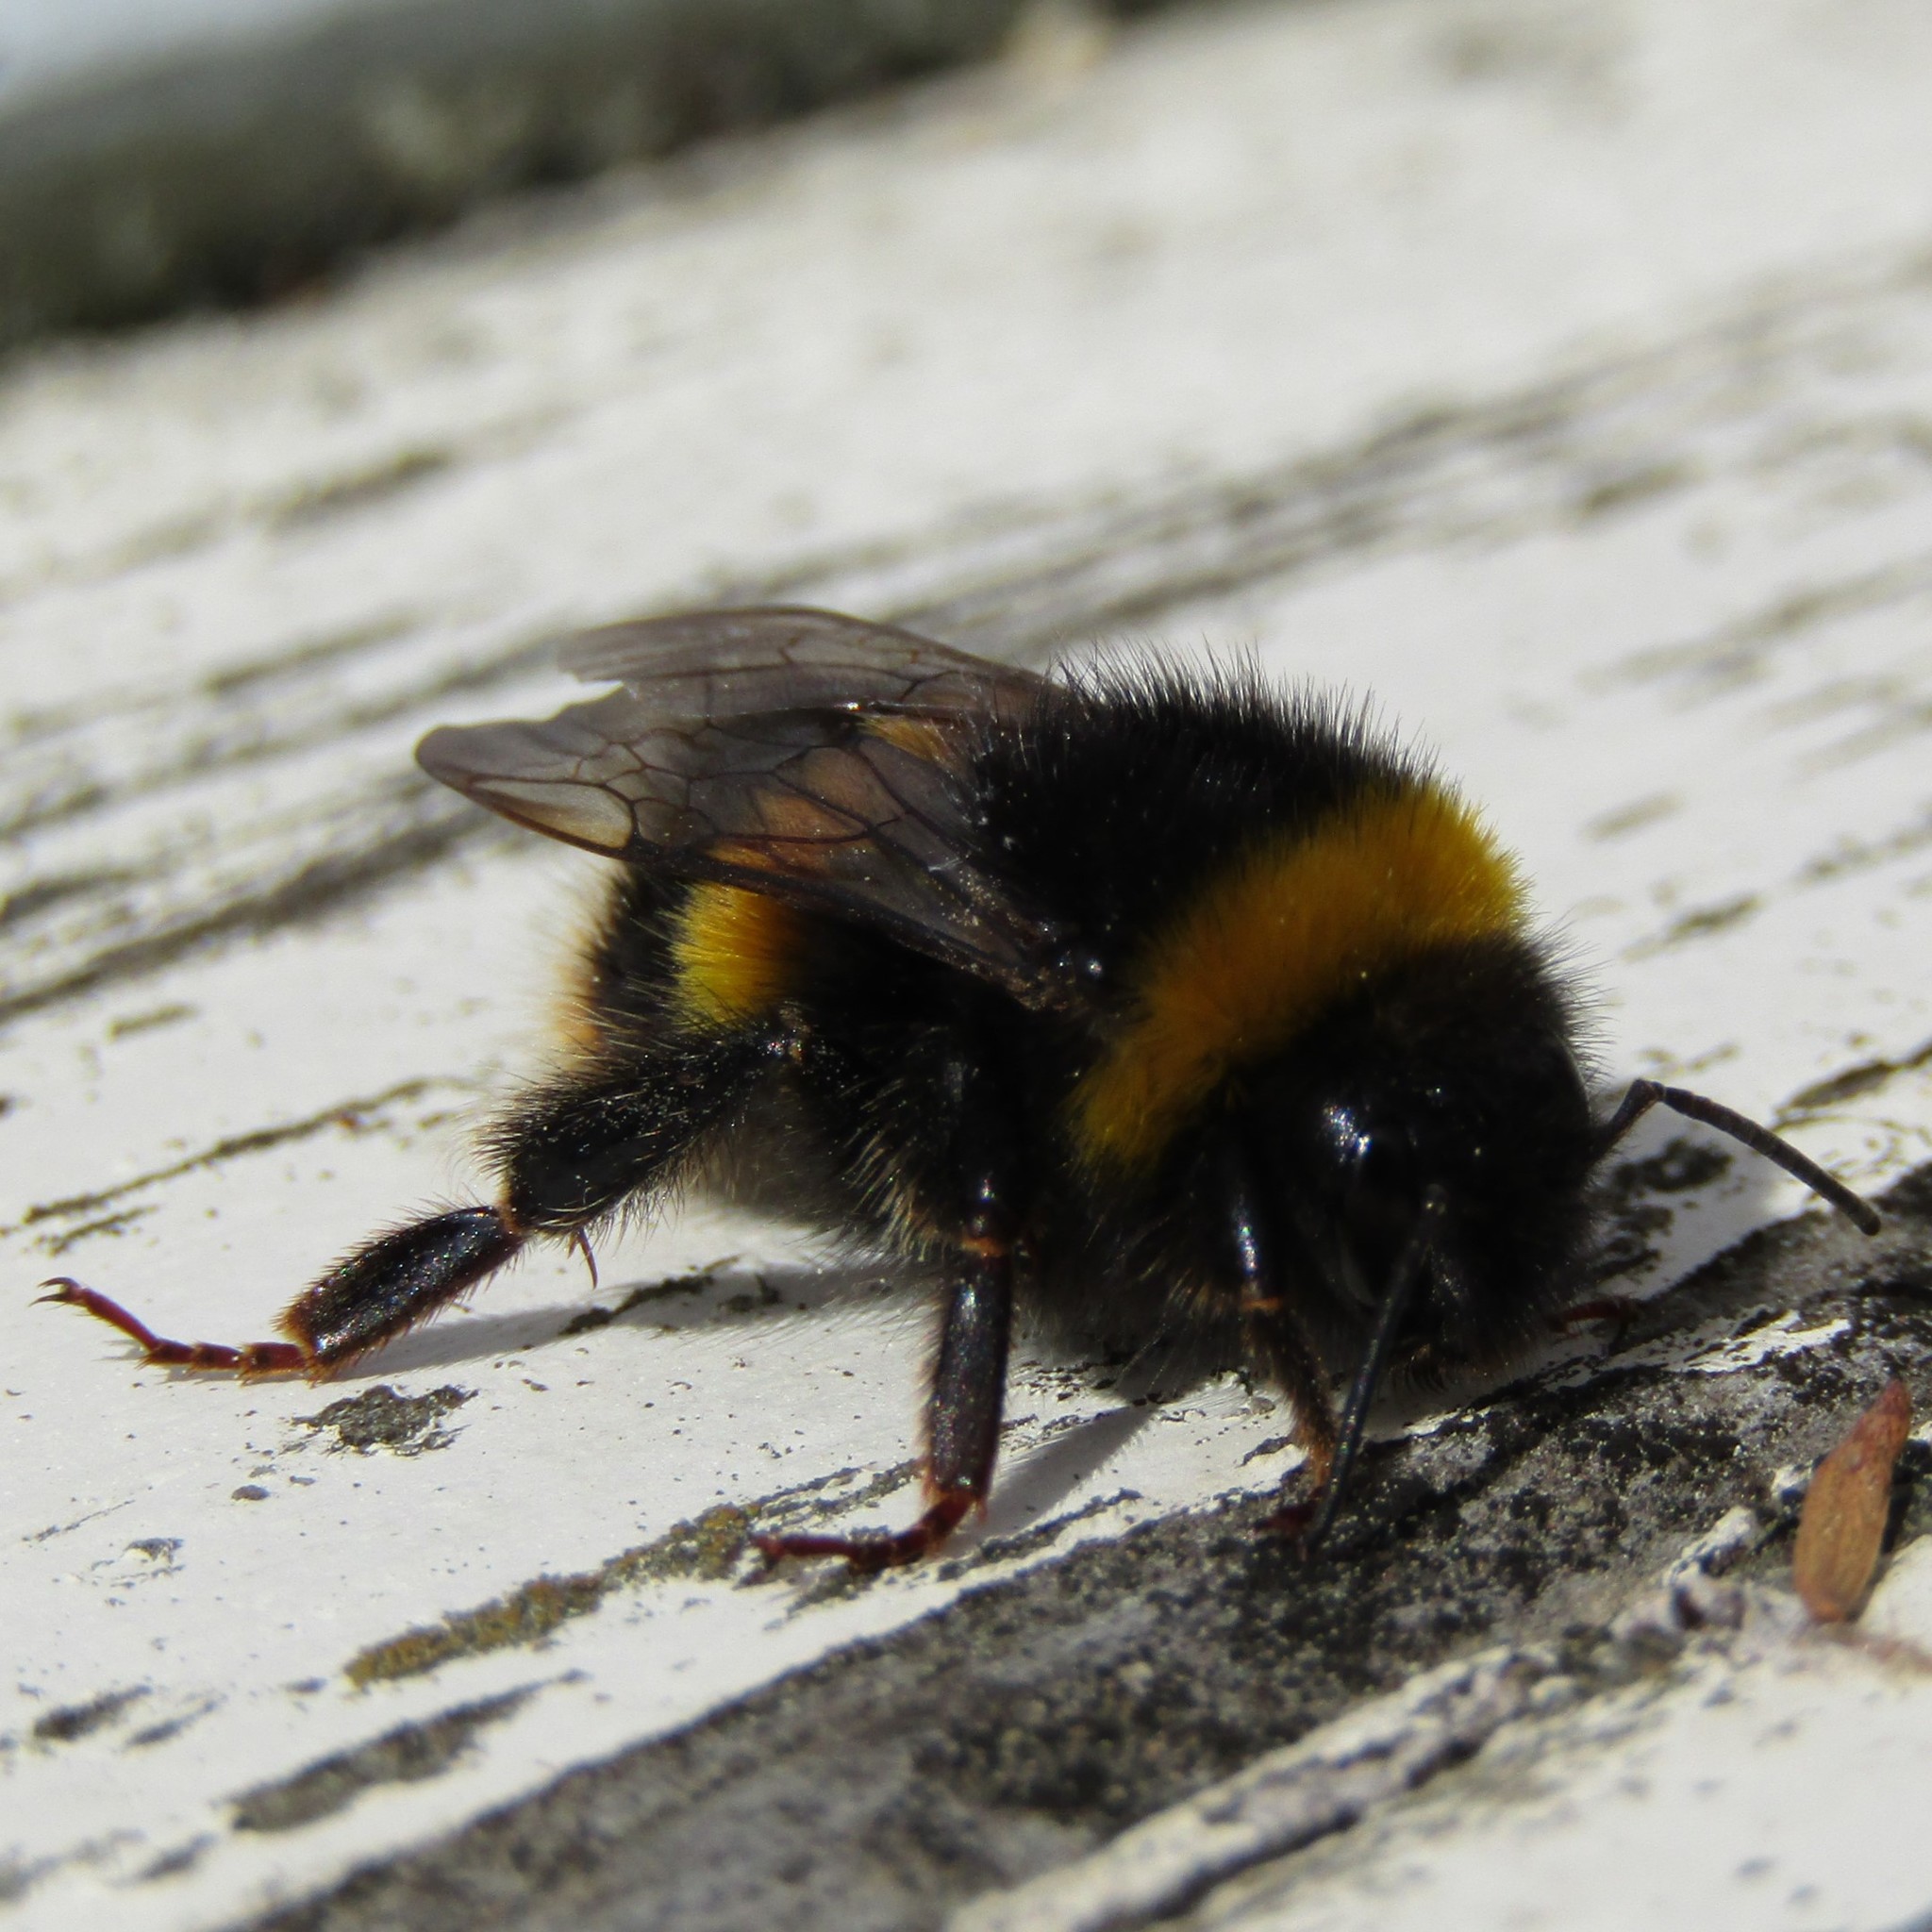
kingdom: Animalia
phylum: Arthropoda
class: Insecta
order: Hymenoptera
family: Apidae
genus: Bombus
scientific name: Bombus terrestris
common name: Buff-tailed bumblebee
